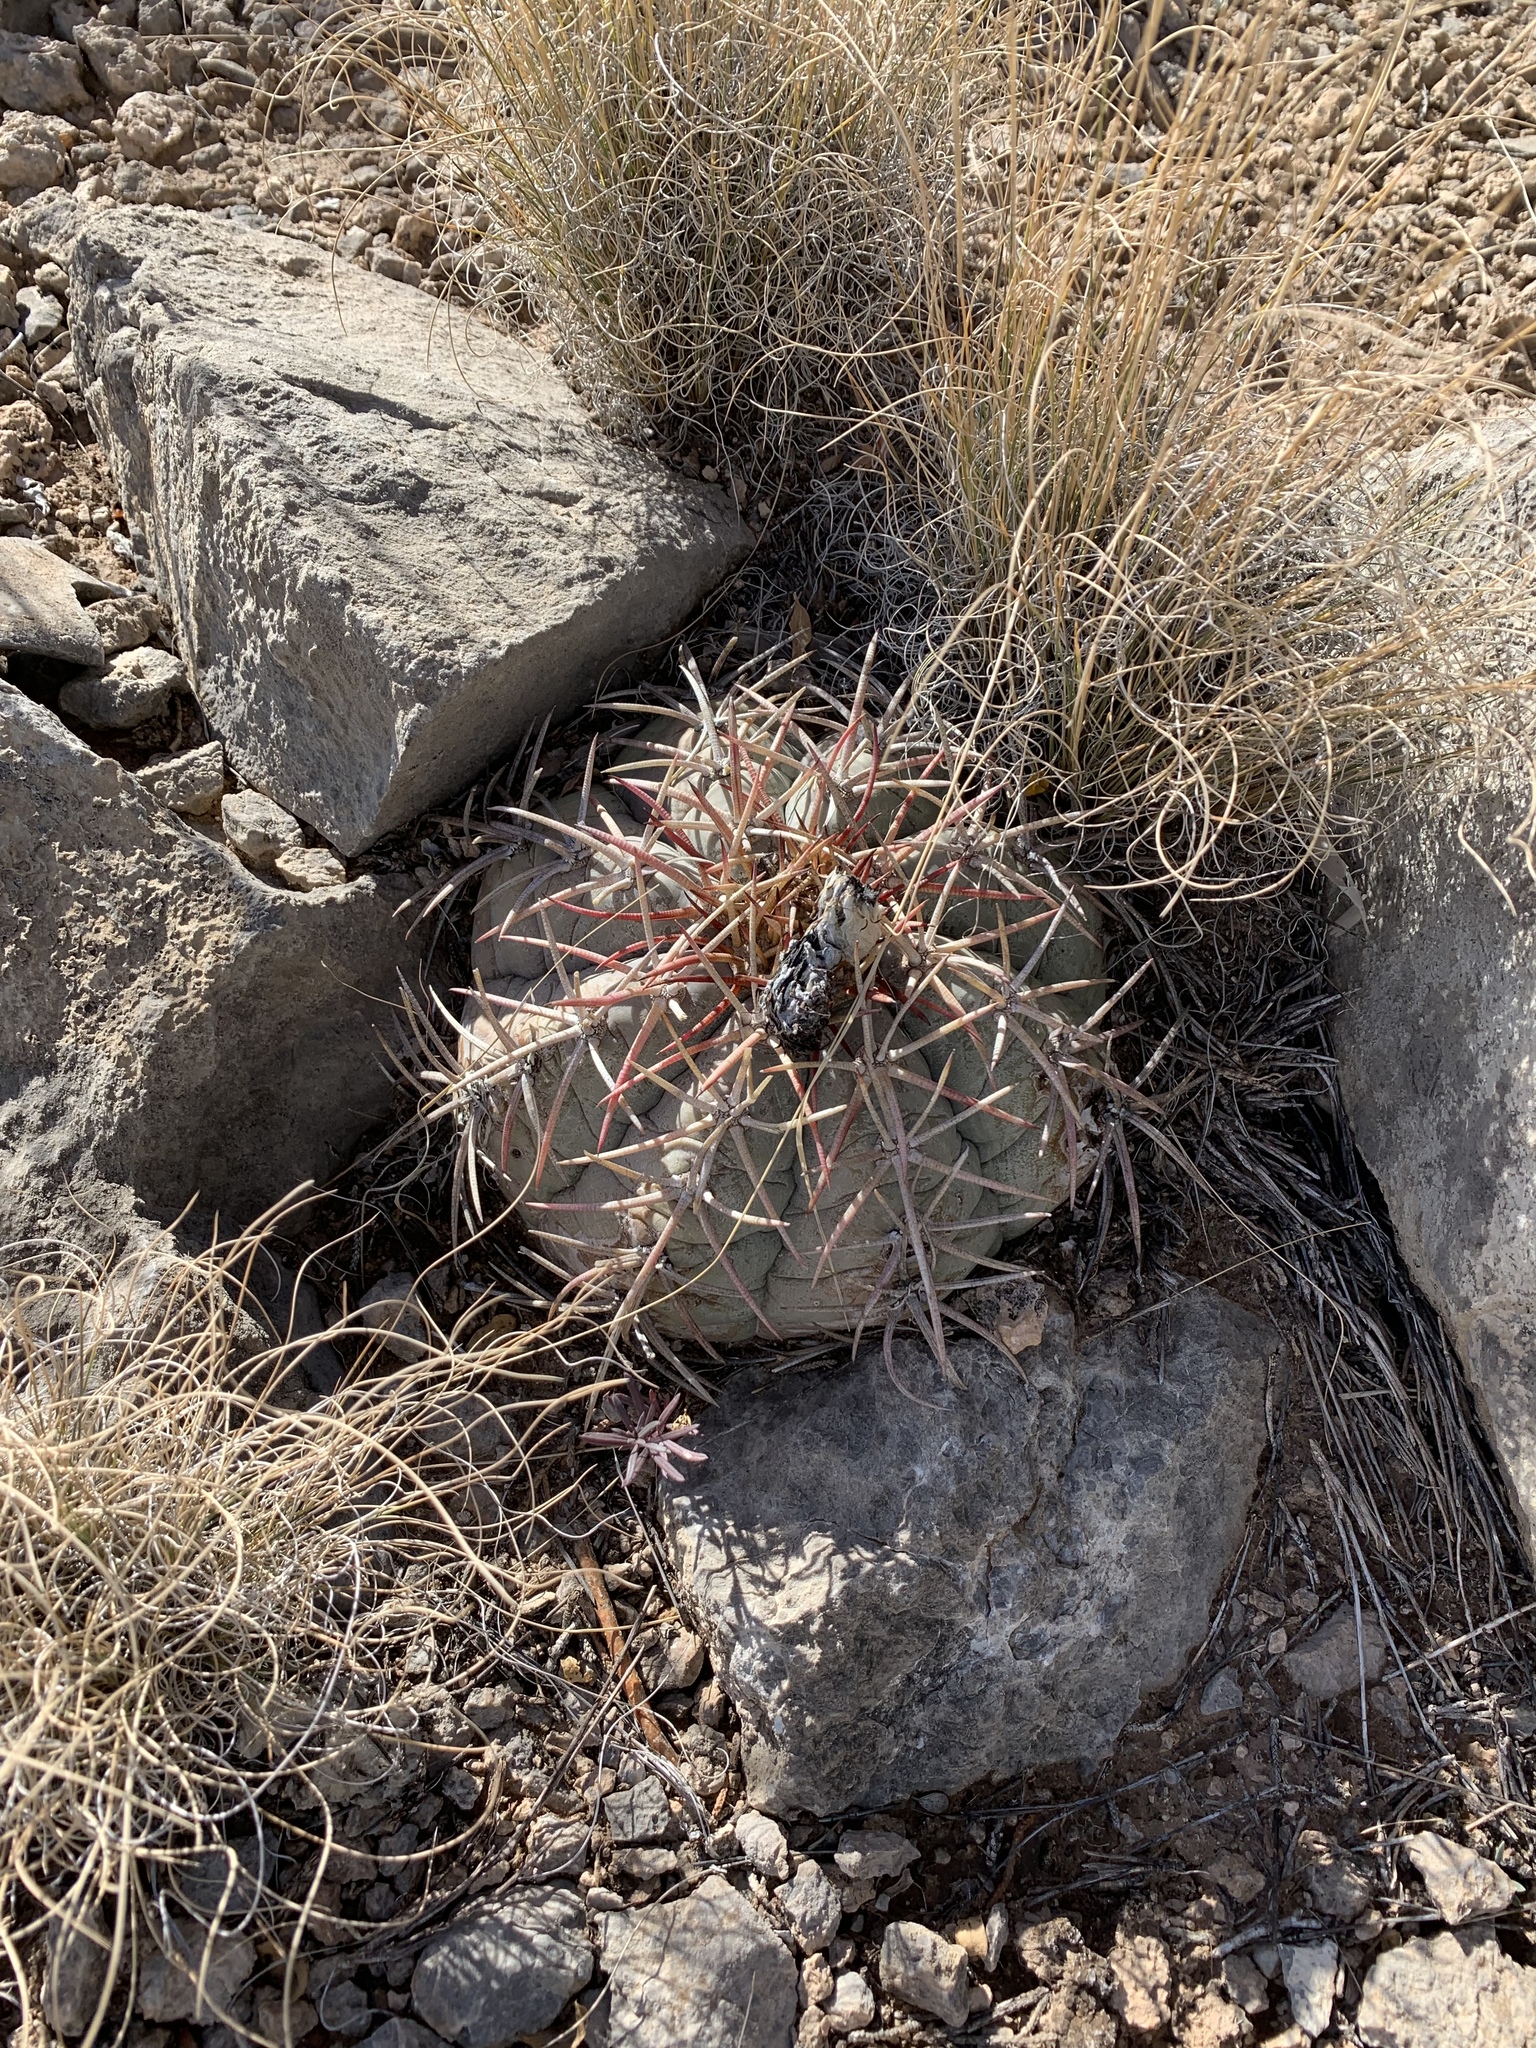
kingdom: Plantae
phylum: Tracheophyta
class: Magnoliopsida
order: Caryophyllales
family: Cactaceae
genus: Echinocactus
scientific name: Echinocactus horizonthalonius
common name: Devilshead
